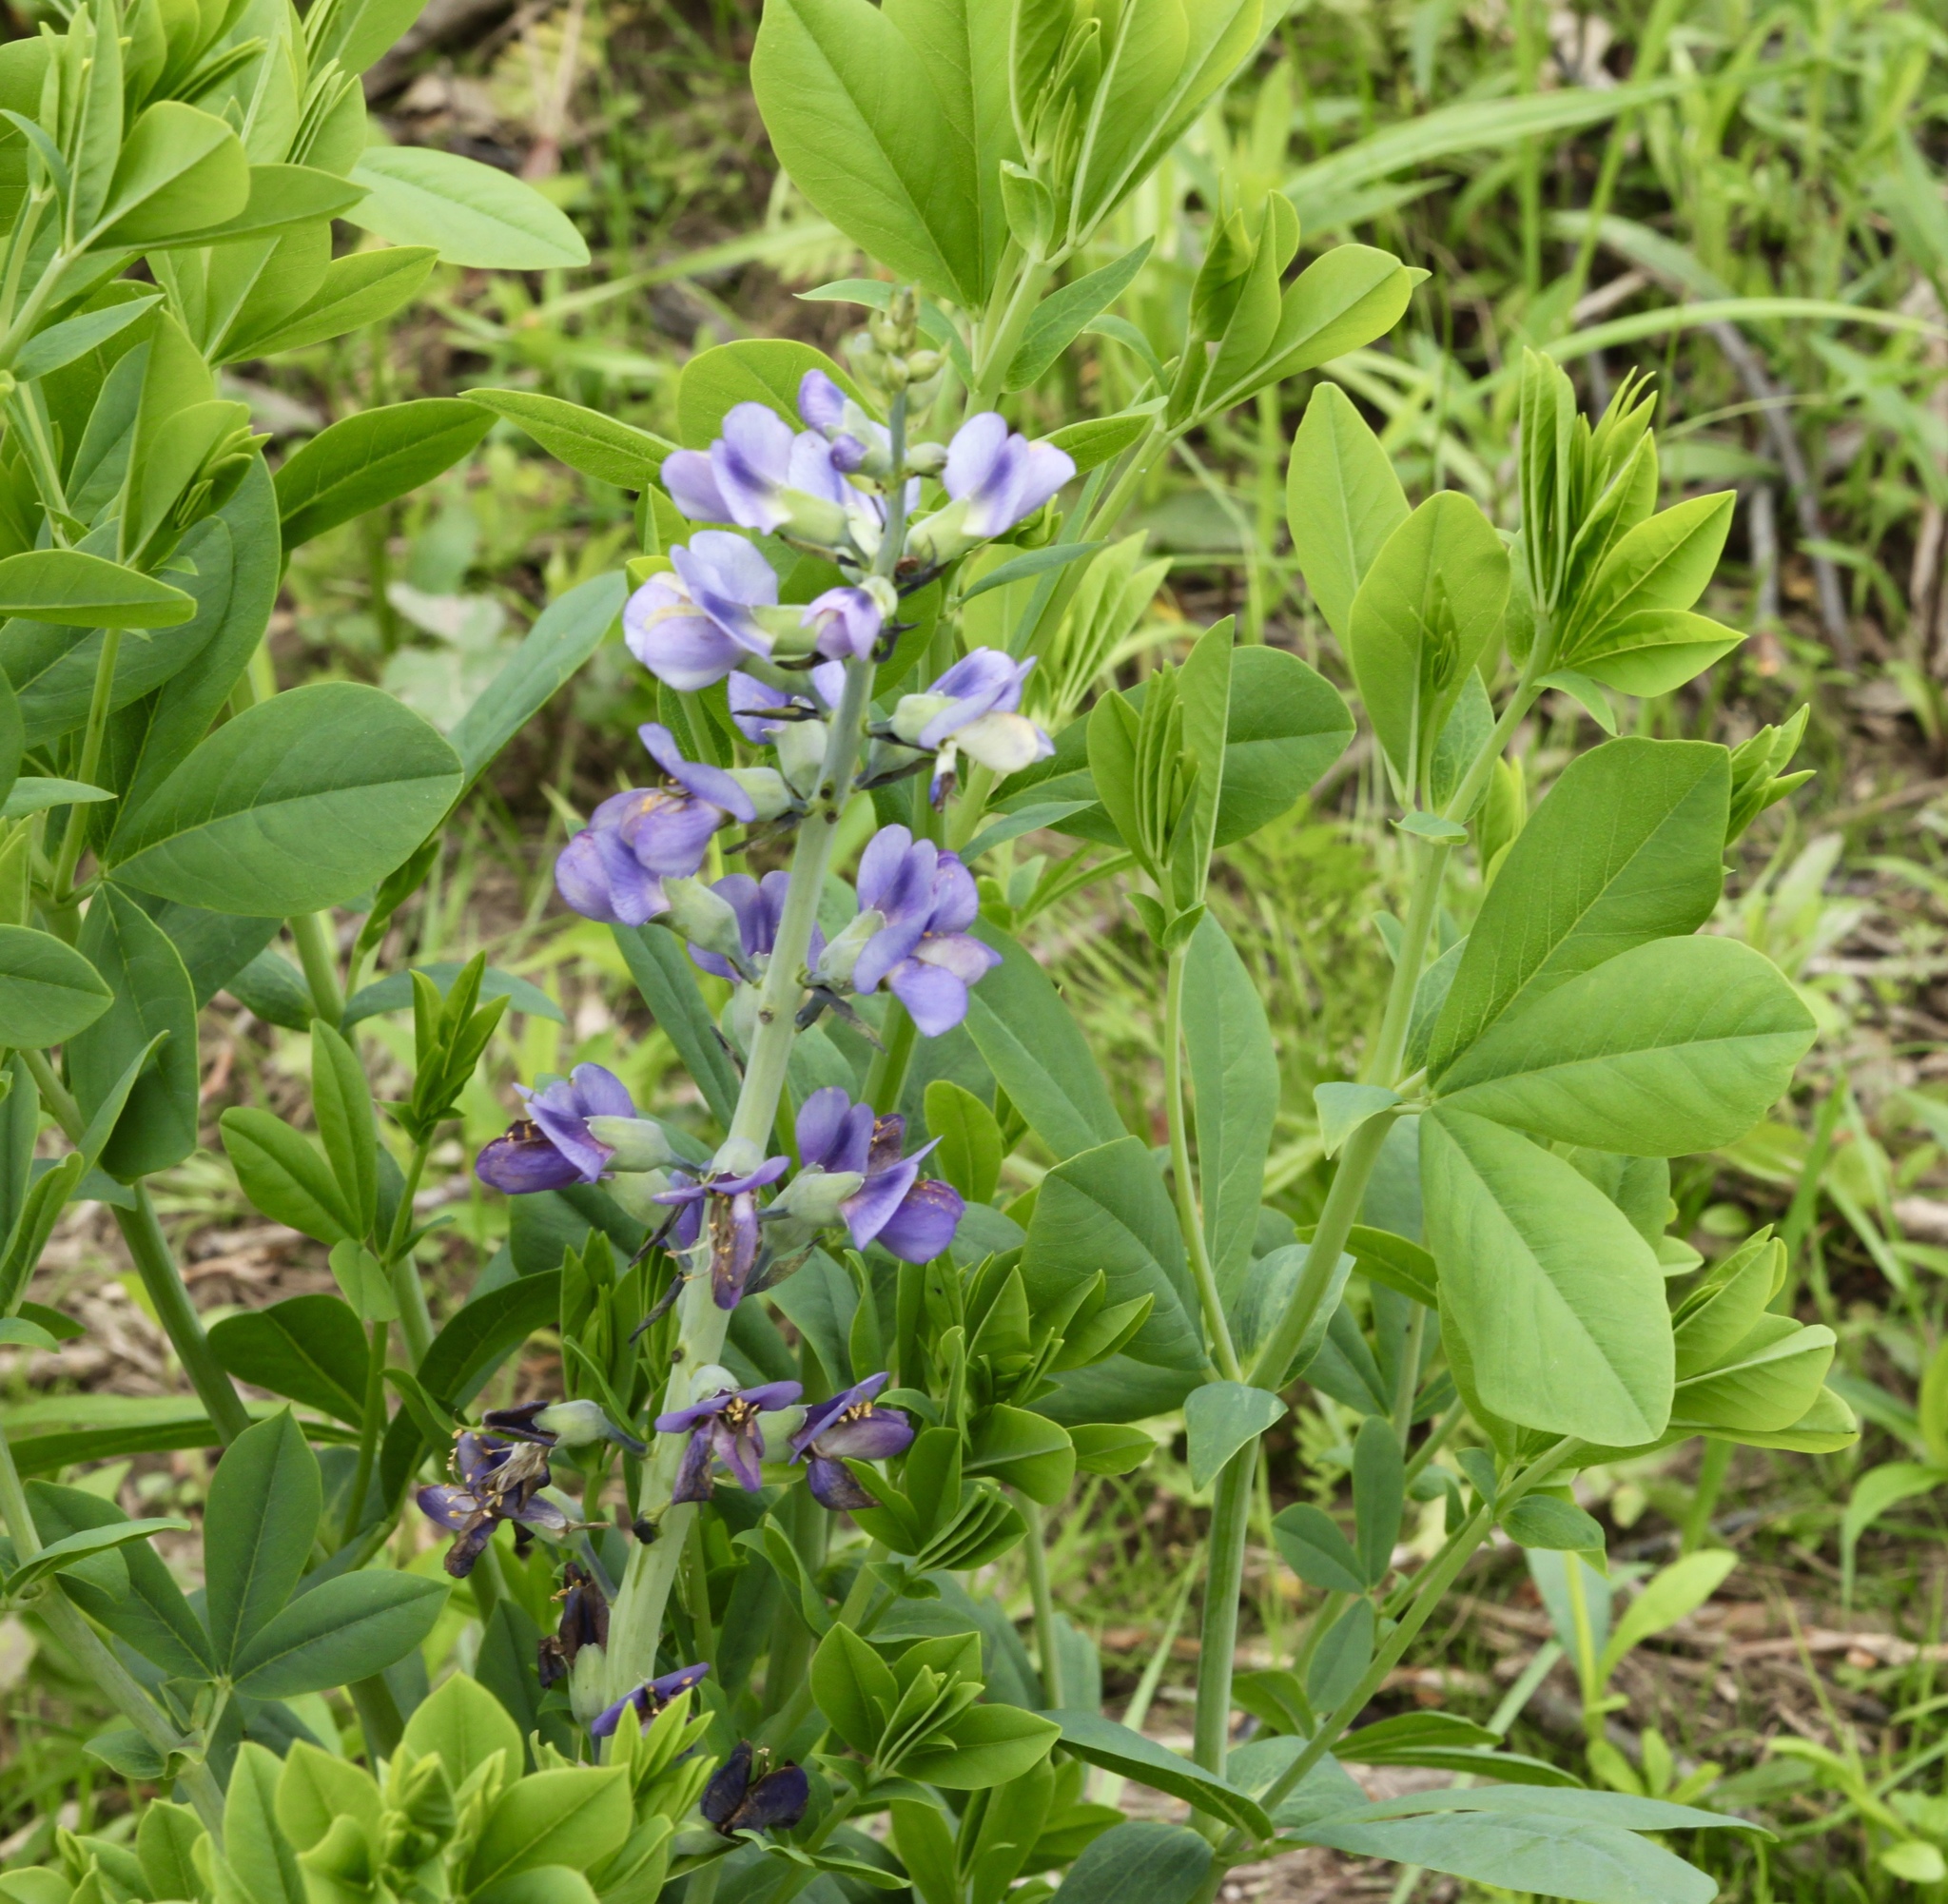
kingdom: Plantae
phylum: Tracheophyta
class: Magnoliopsida
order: Fabales
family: Fabaceae
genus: Baptisia
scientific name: Baptisia australis
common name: Blue false indigo
